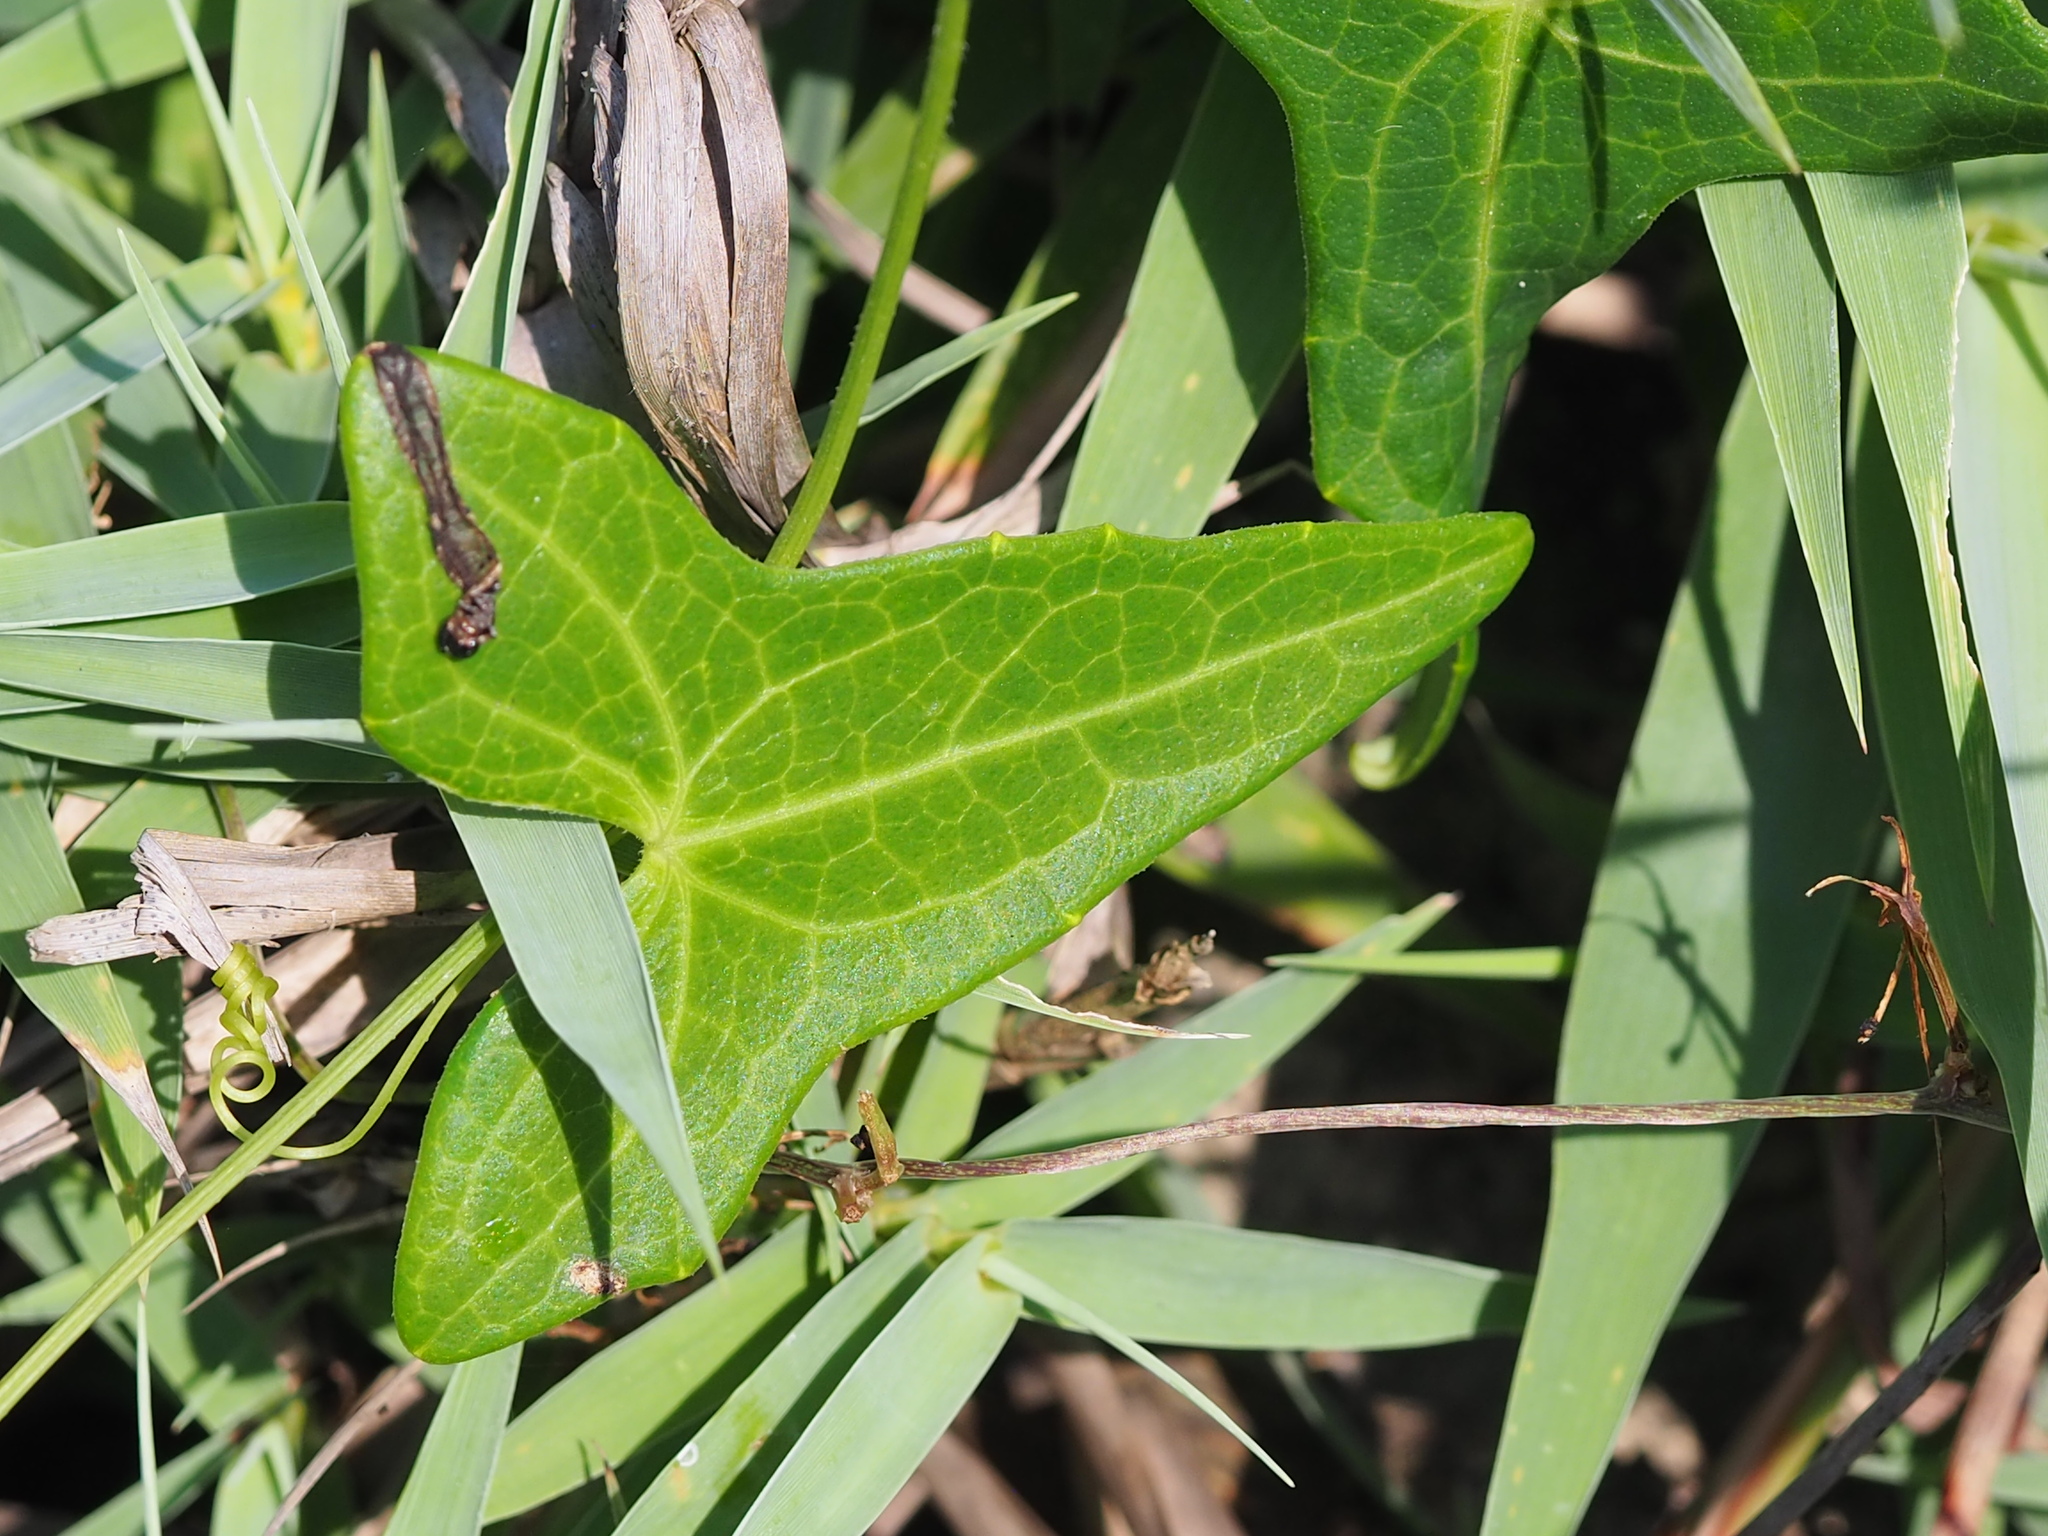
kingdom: Plantae
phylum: Tracheophyta
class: Magnoliopsida
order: Cucurbitales
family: Cucurbitaceae
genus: Solena
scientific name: Solena amplexicaulis
